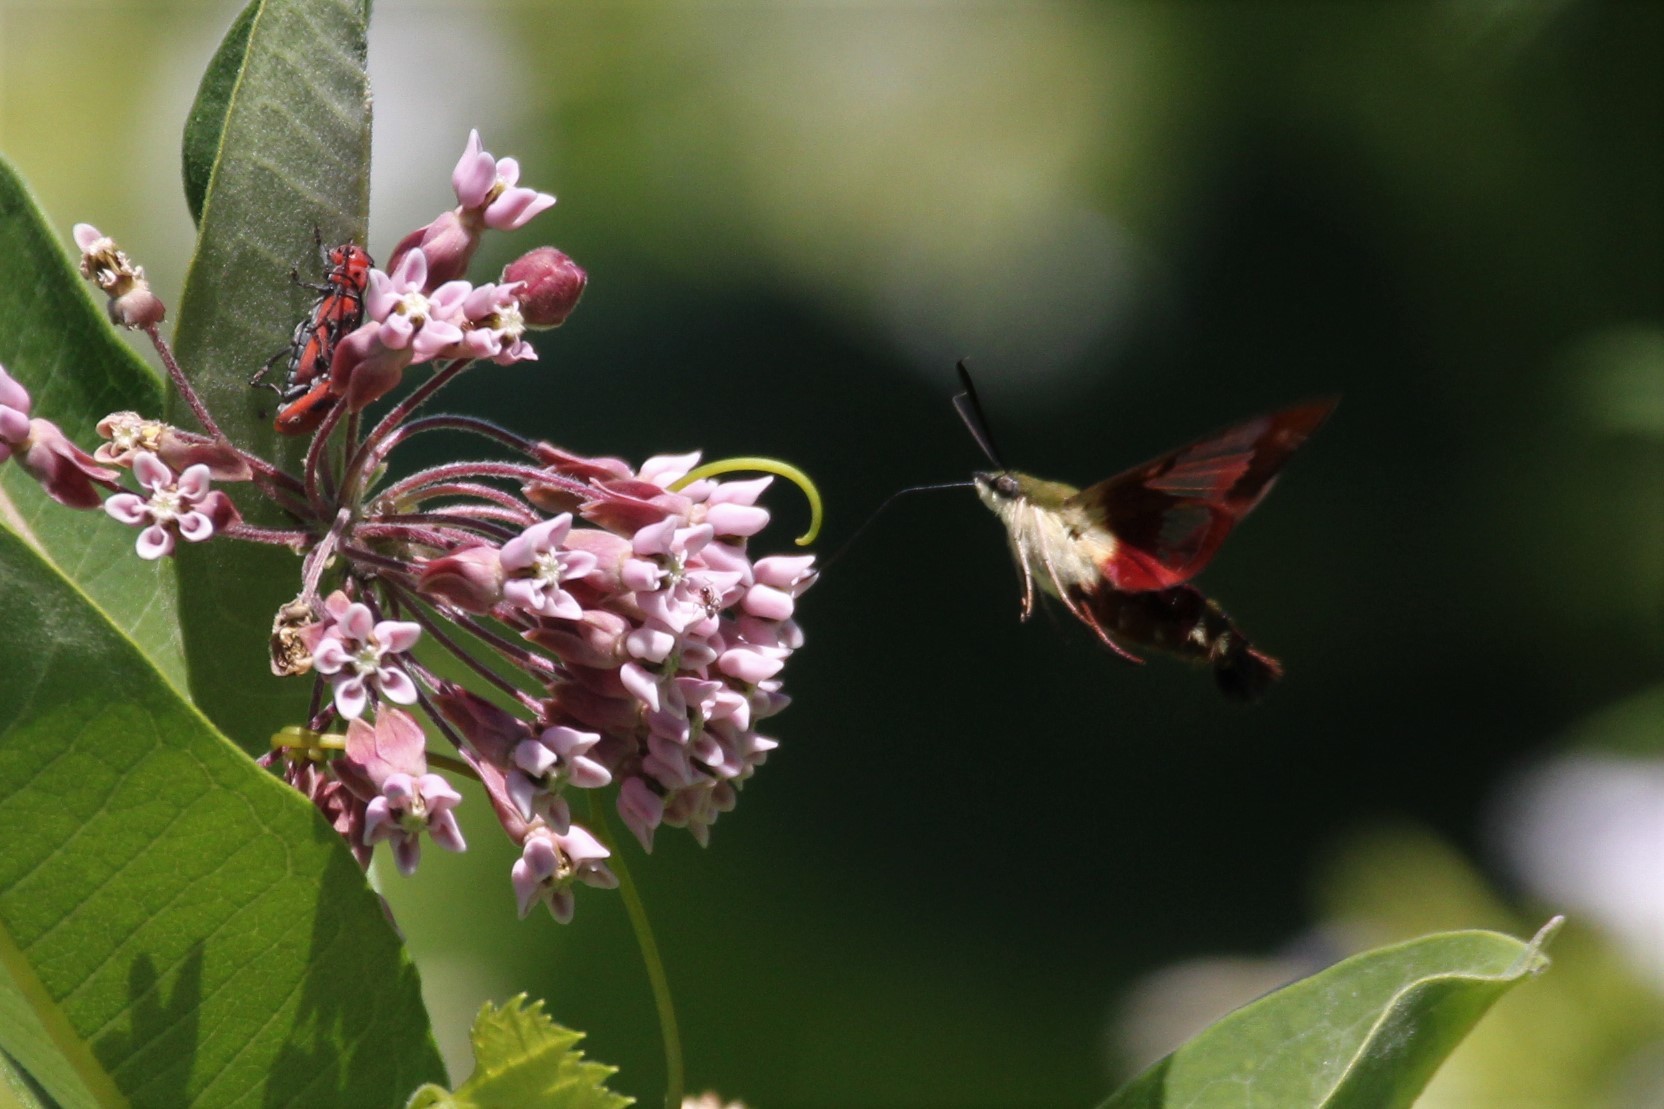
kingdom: Animalia
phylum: Arthropoda
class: Insecta
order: Lepidoptera
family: Sphingidae
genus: Hemaris
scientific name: Hemaris thysbe
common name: Common clear-wing
